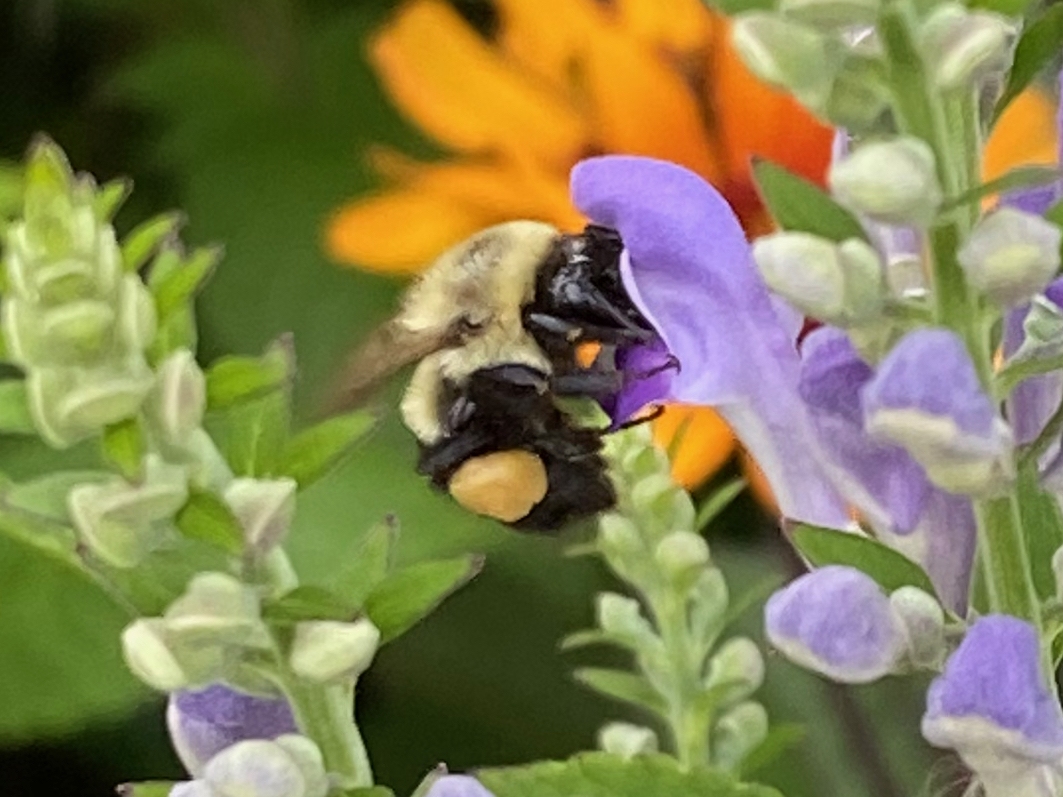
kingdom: Animalia
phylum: Arthropoda
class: Insecta
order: Hymenoptera
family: Apidae
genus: Bombus
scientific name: Bombus impatiens
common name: Common eastern bumble bee
